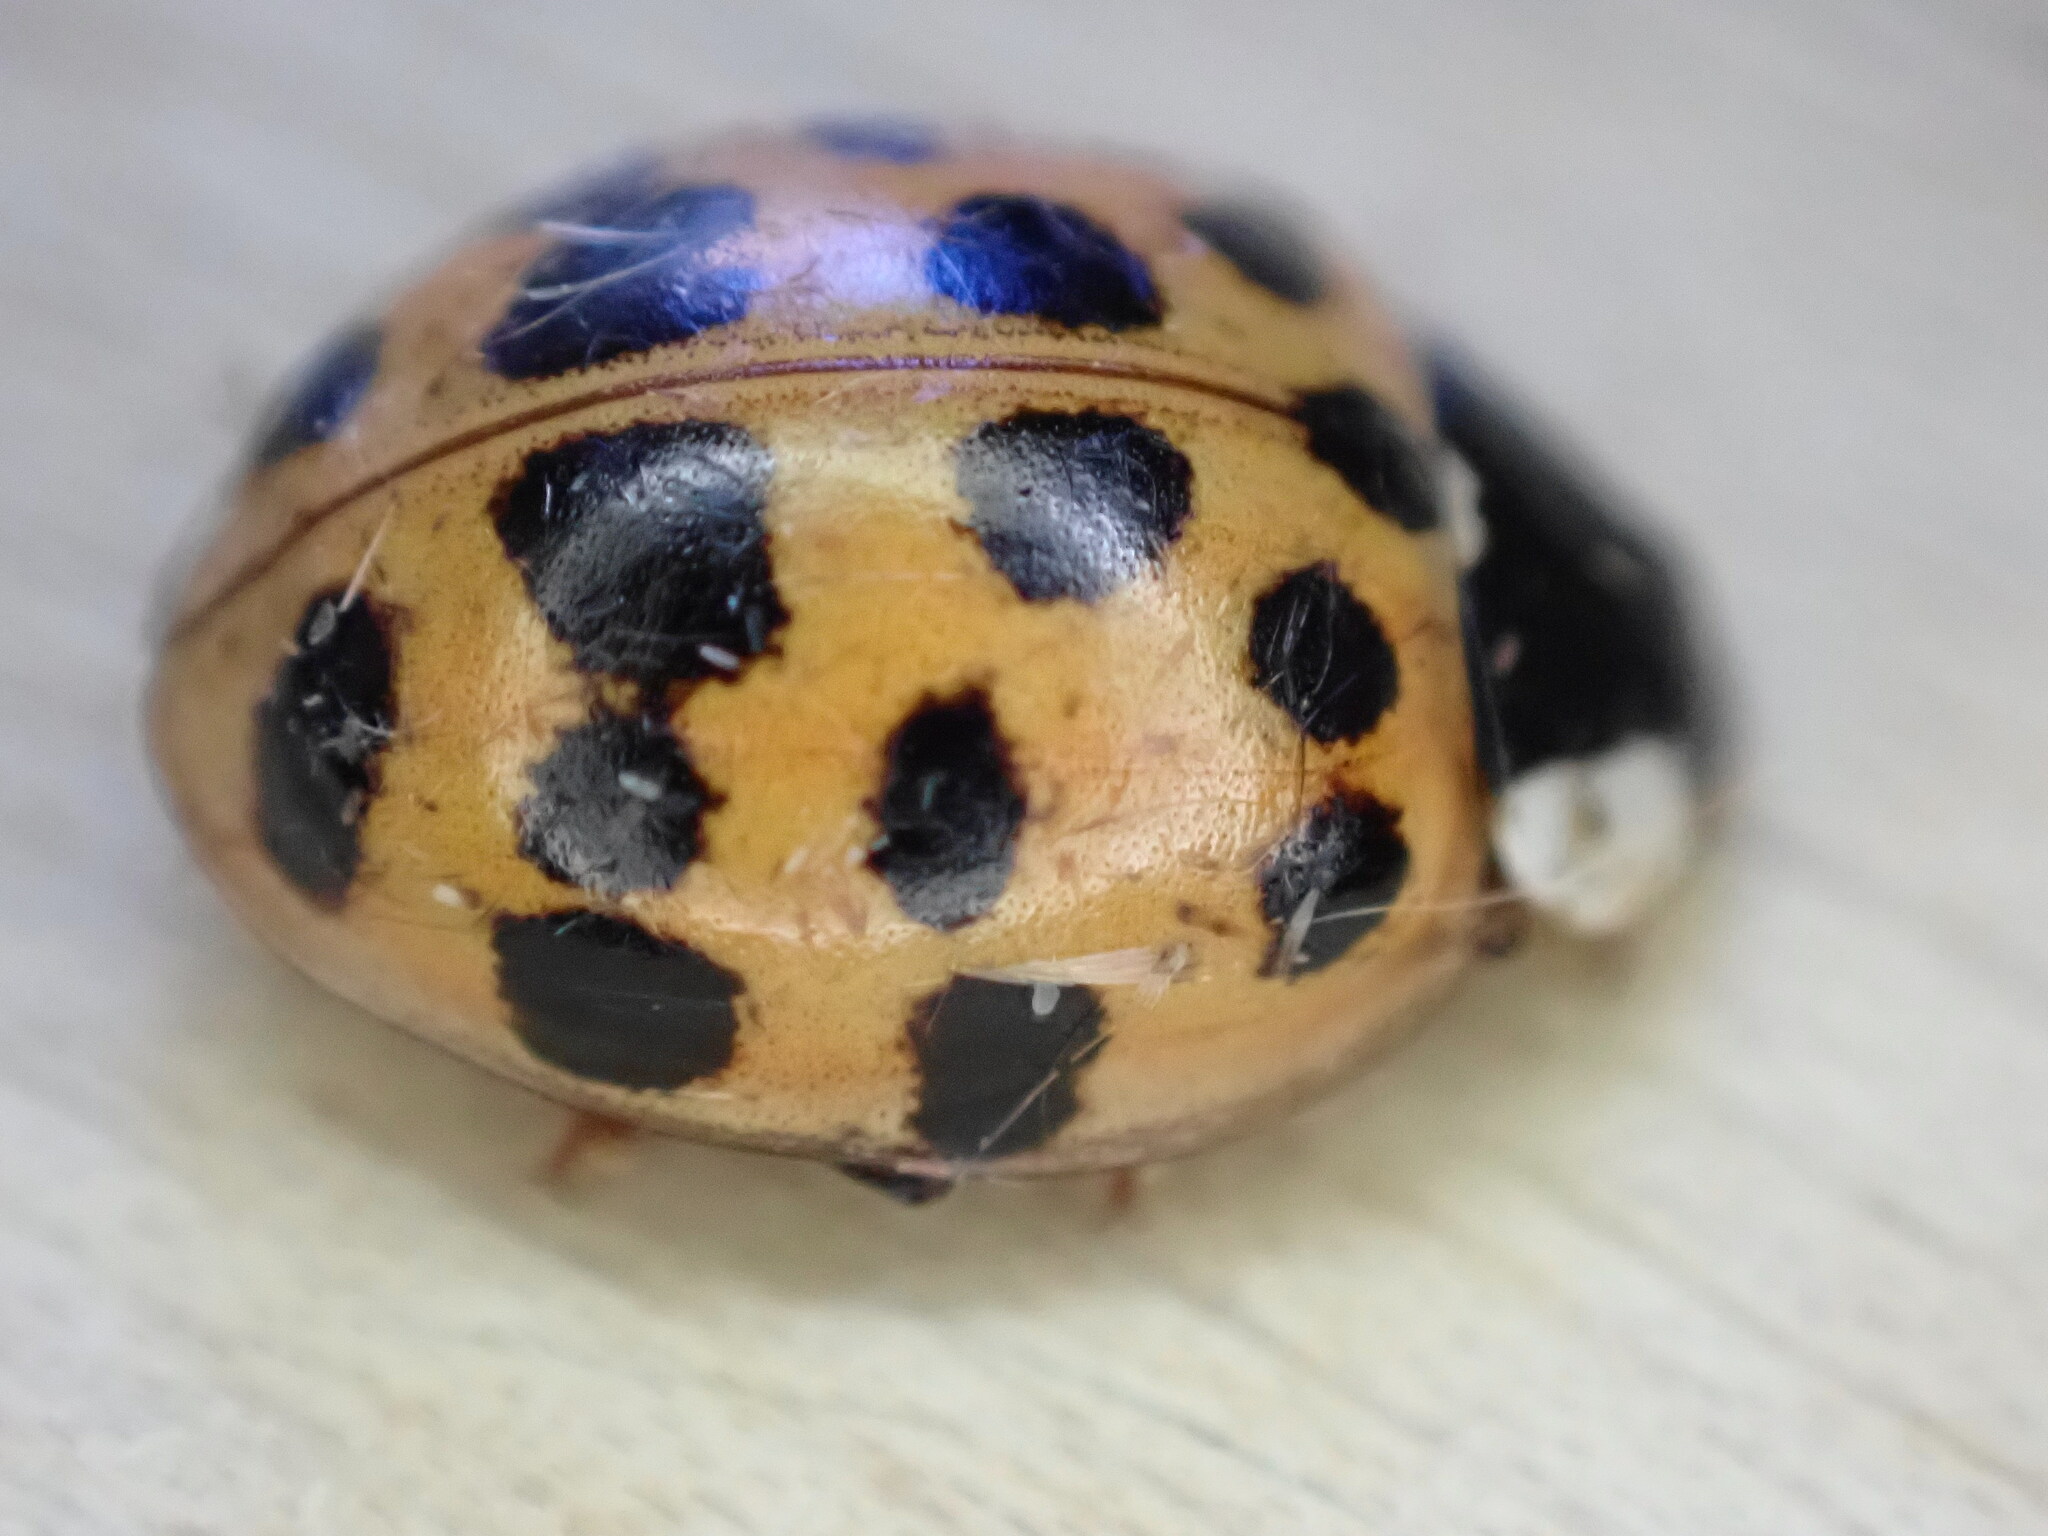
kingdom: Animalia
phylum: Arthropoda
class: Insecta
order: Coleoptera
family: Coccinellidae
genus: Harmonia
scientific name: Harmonia axyridis
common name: Harlequin ladybird
